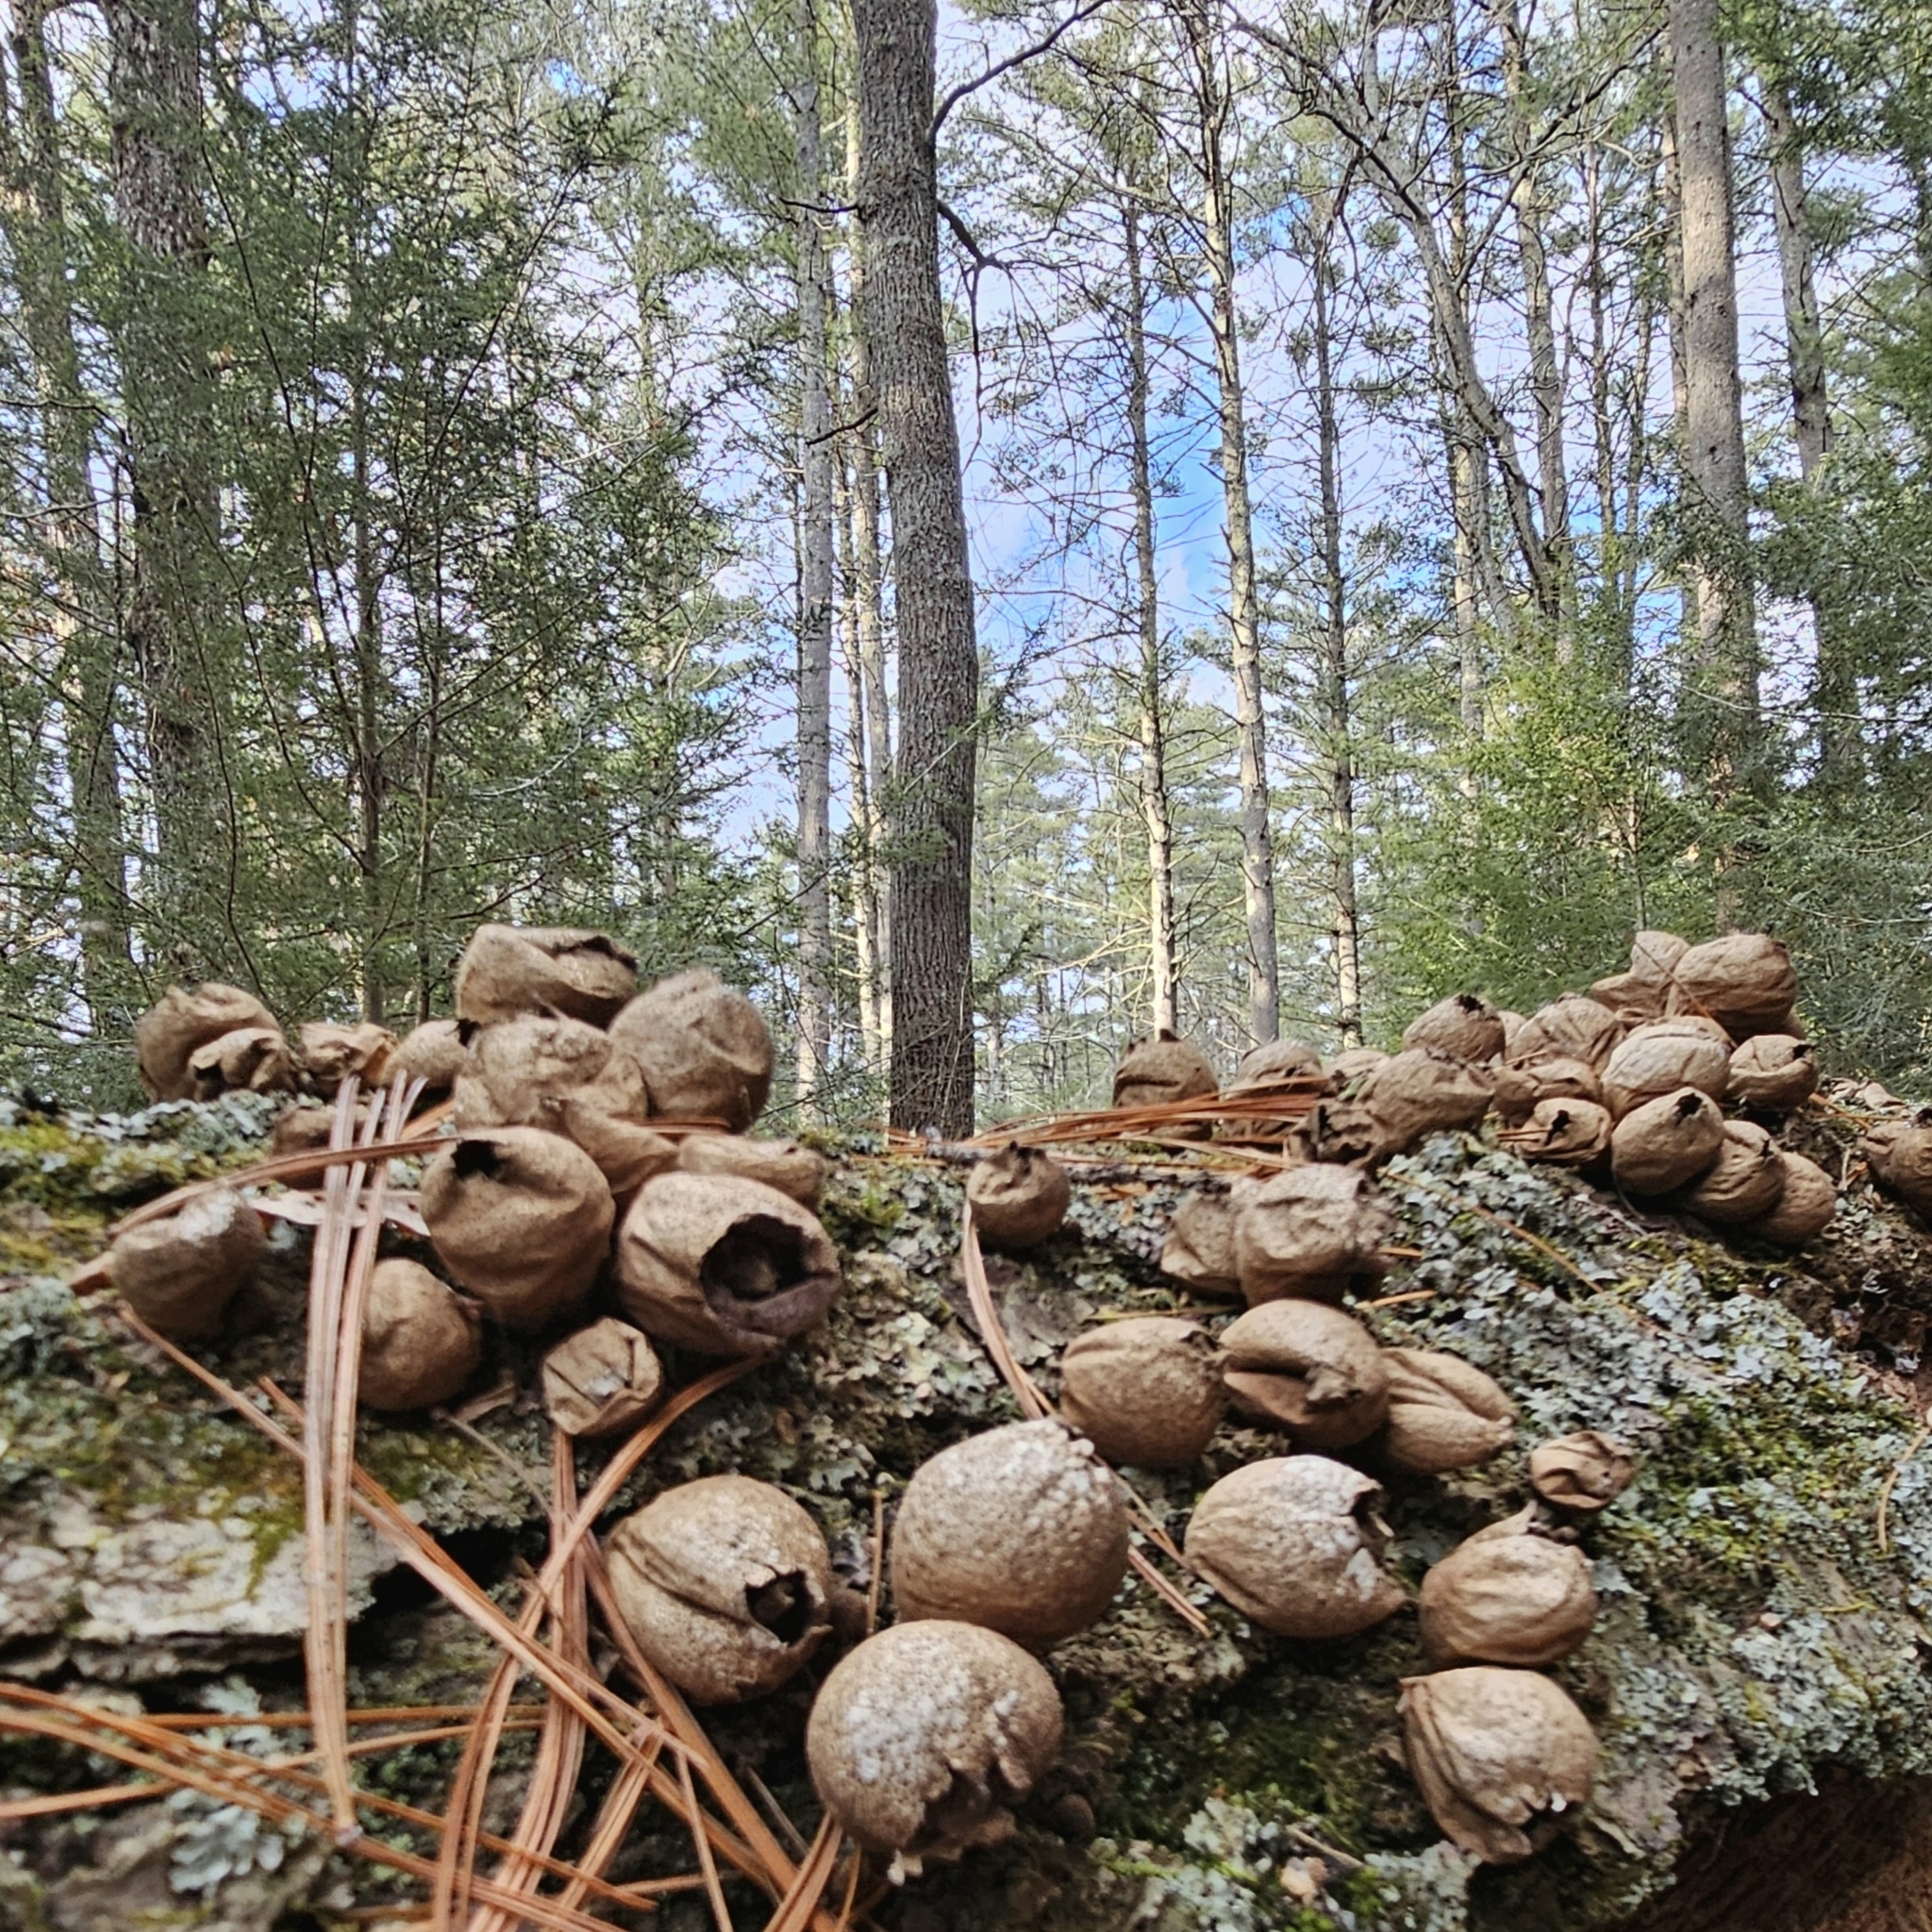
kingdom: Fungi
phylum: Basidiomycota
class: Agaricomycetes
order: Agaricales
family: Lycoperdaceae
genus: Apioperdon
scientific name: Apioperdon pyriforme
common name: Pear-shaped puffball
